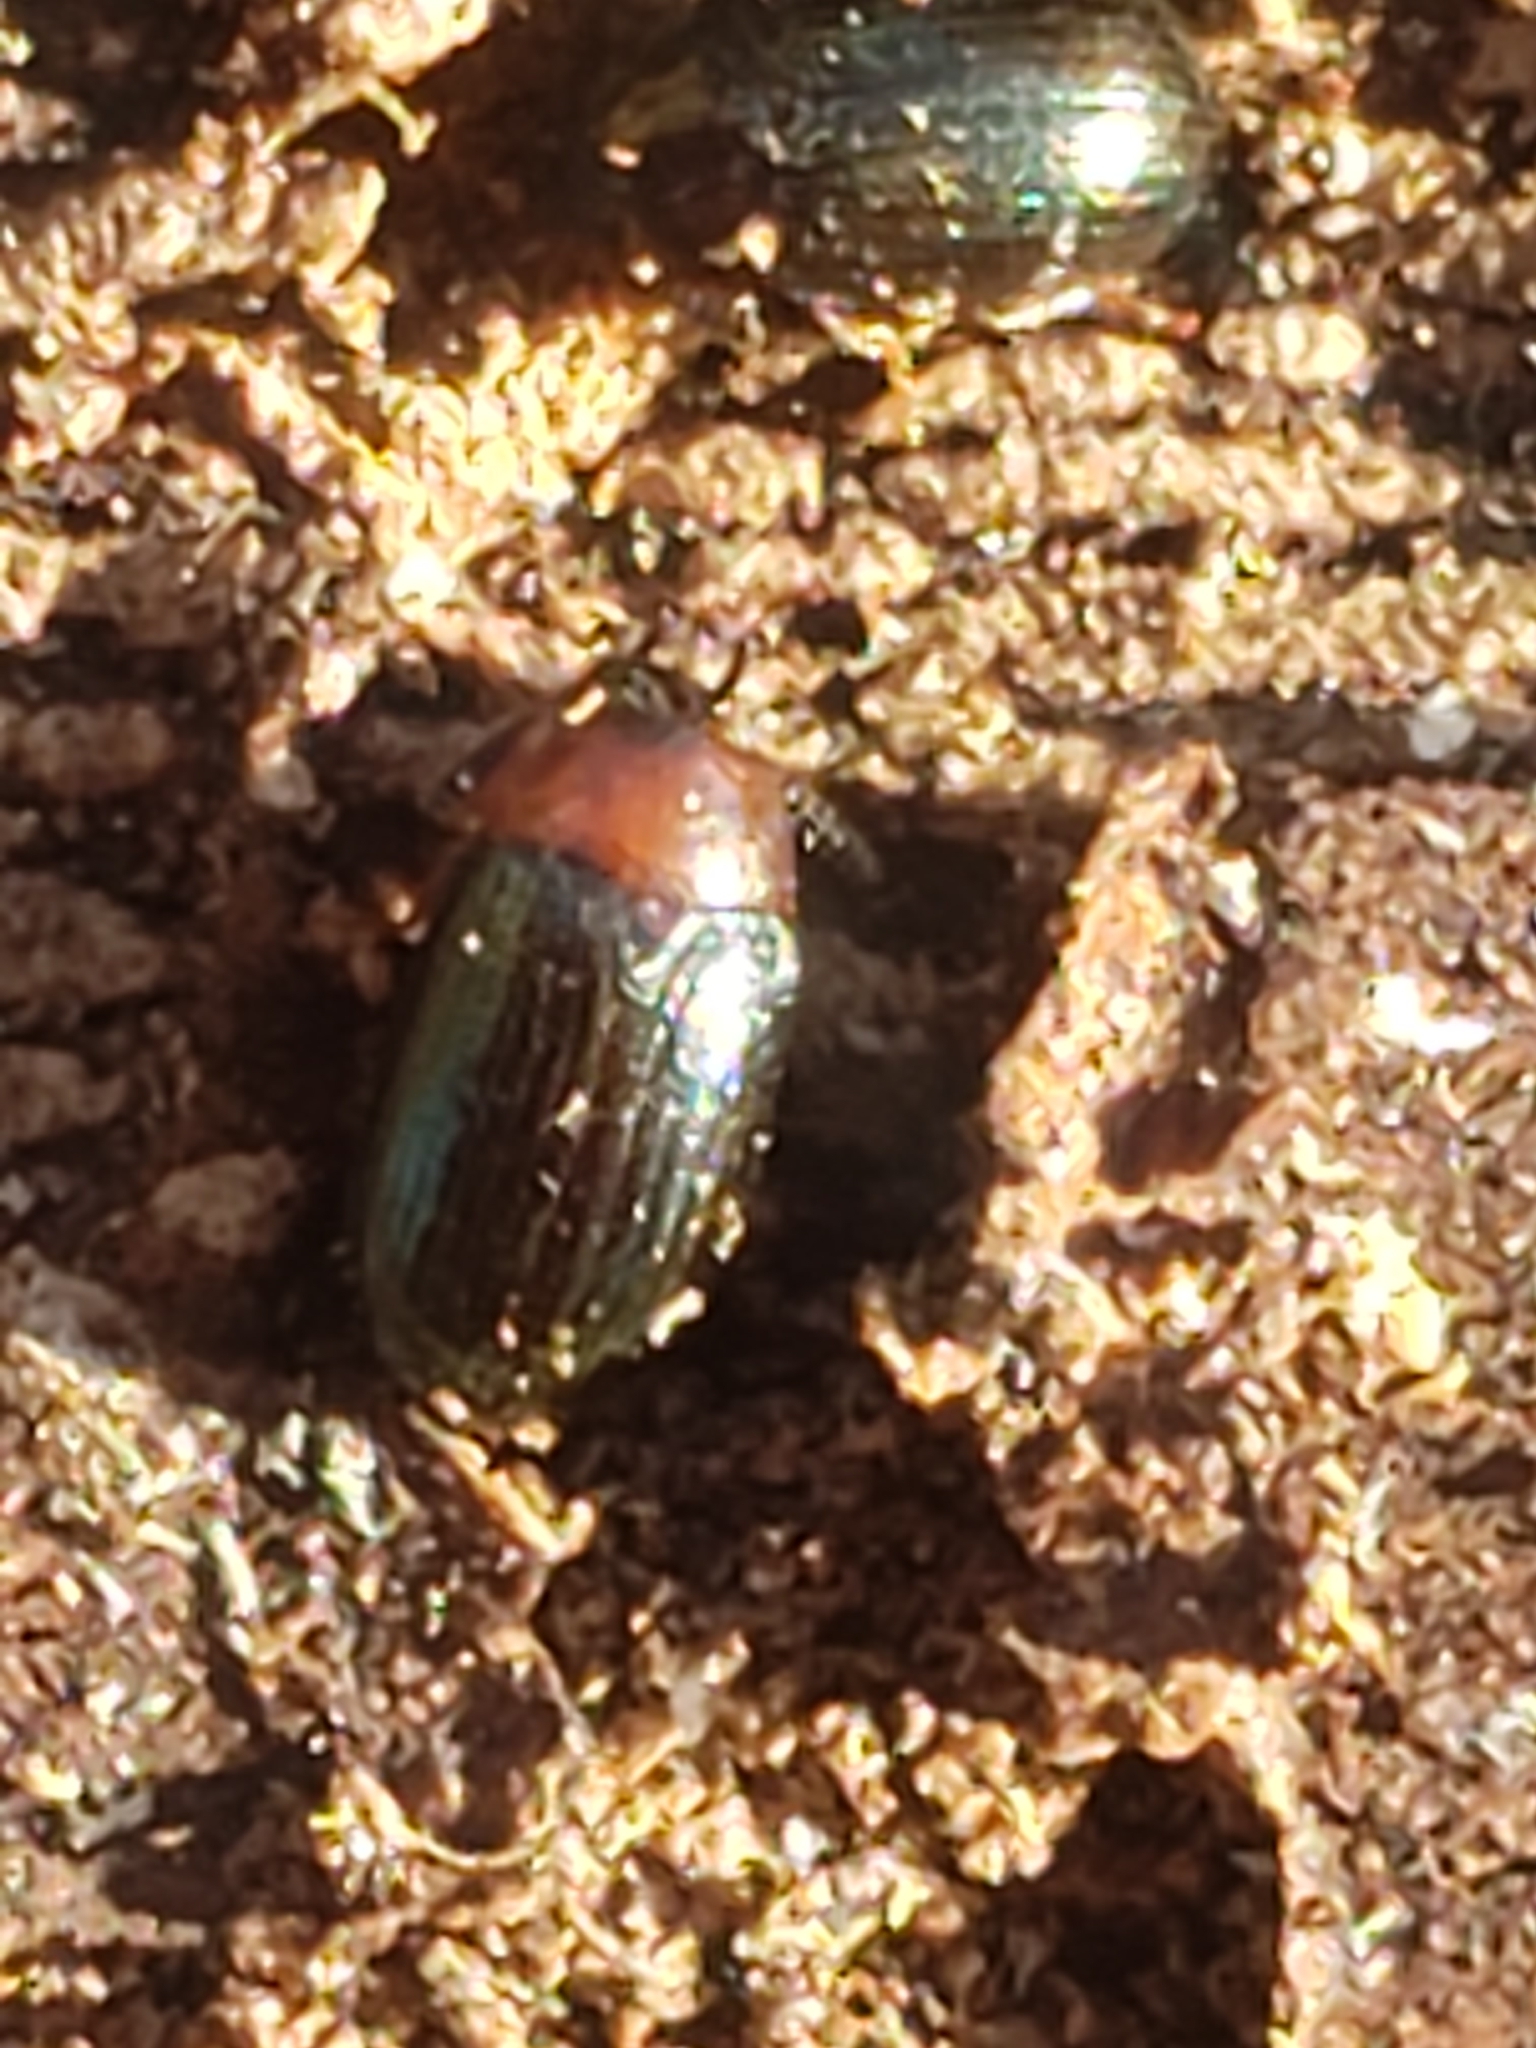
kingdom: Animalia
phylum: Arthropoda
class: Insecta
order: Coleoptera
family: Tenebrionidae
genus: Neomida
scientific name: Neomida bicornis
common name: Two-horned darkling beetle
